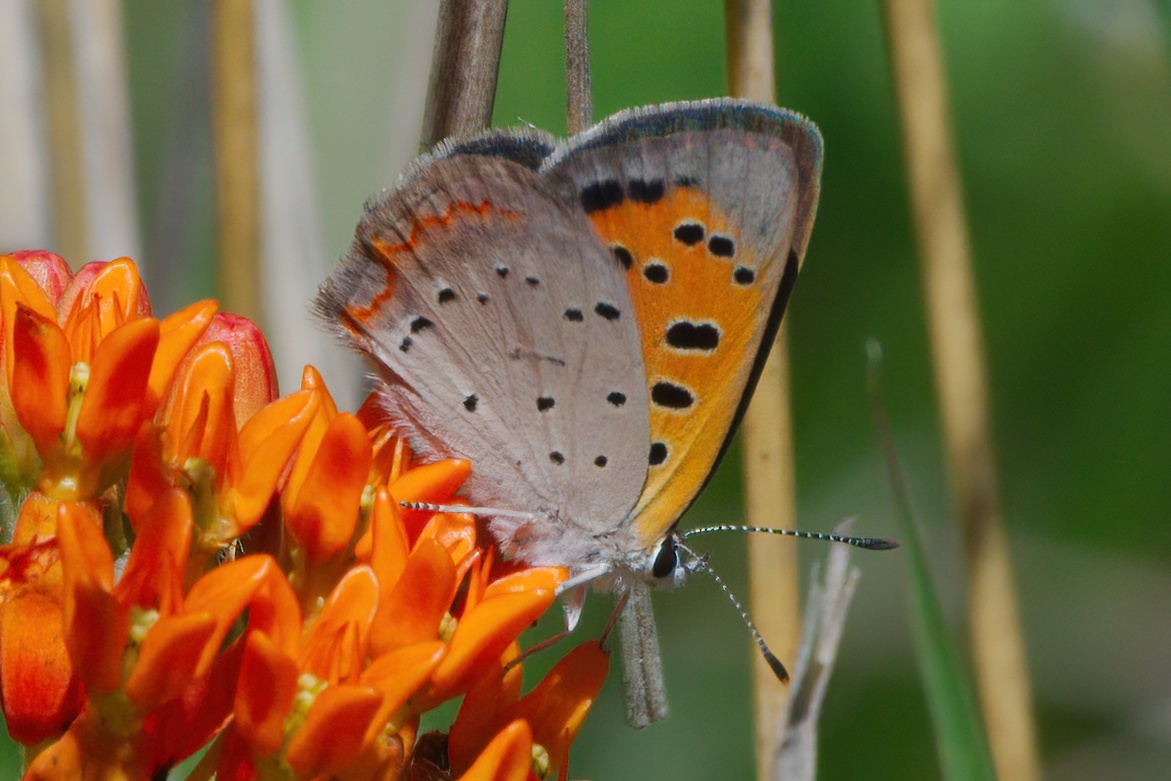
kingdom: Animalia
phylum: Arthropoda
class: Insecta
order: Lepidoptera
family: Lycaenidae
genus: Lycaena
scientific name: Lycaena hypophlaeas
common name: American copper
